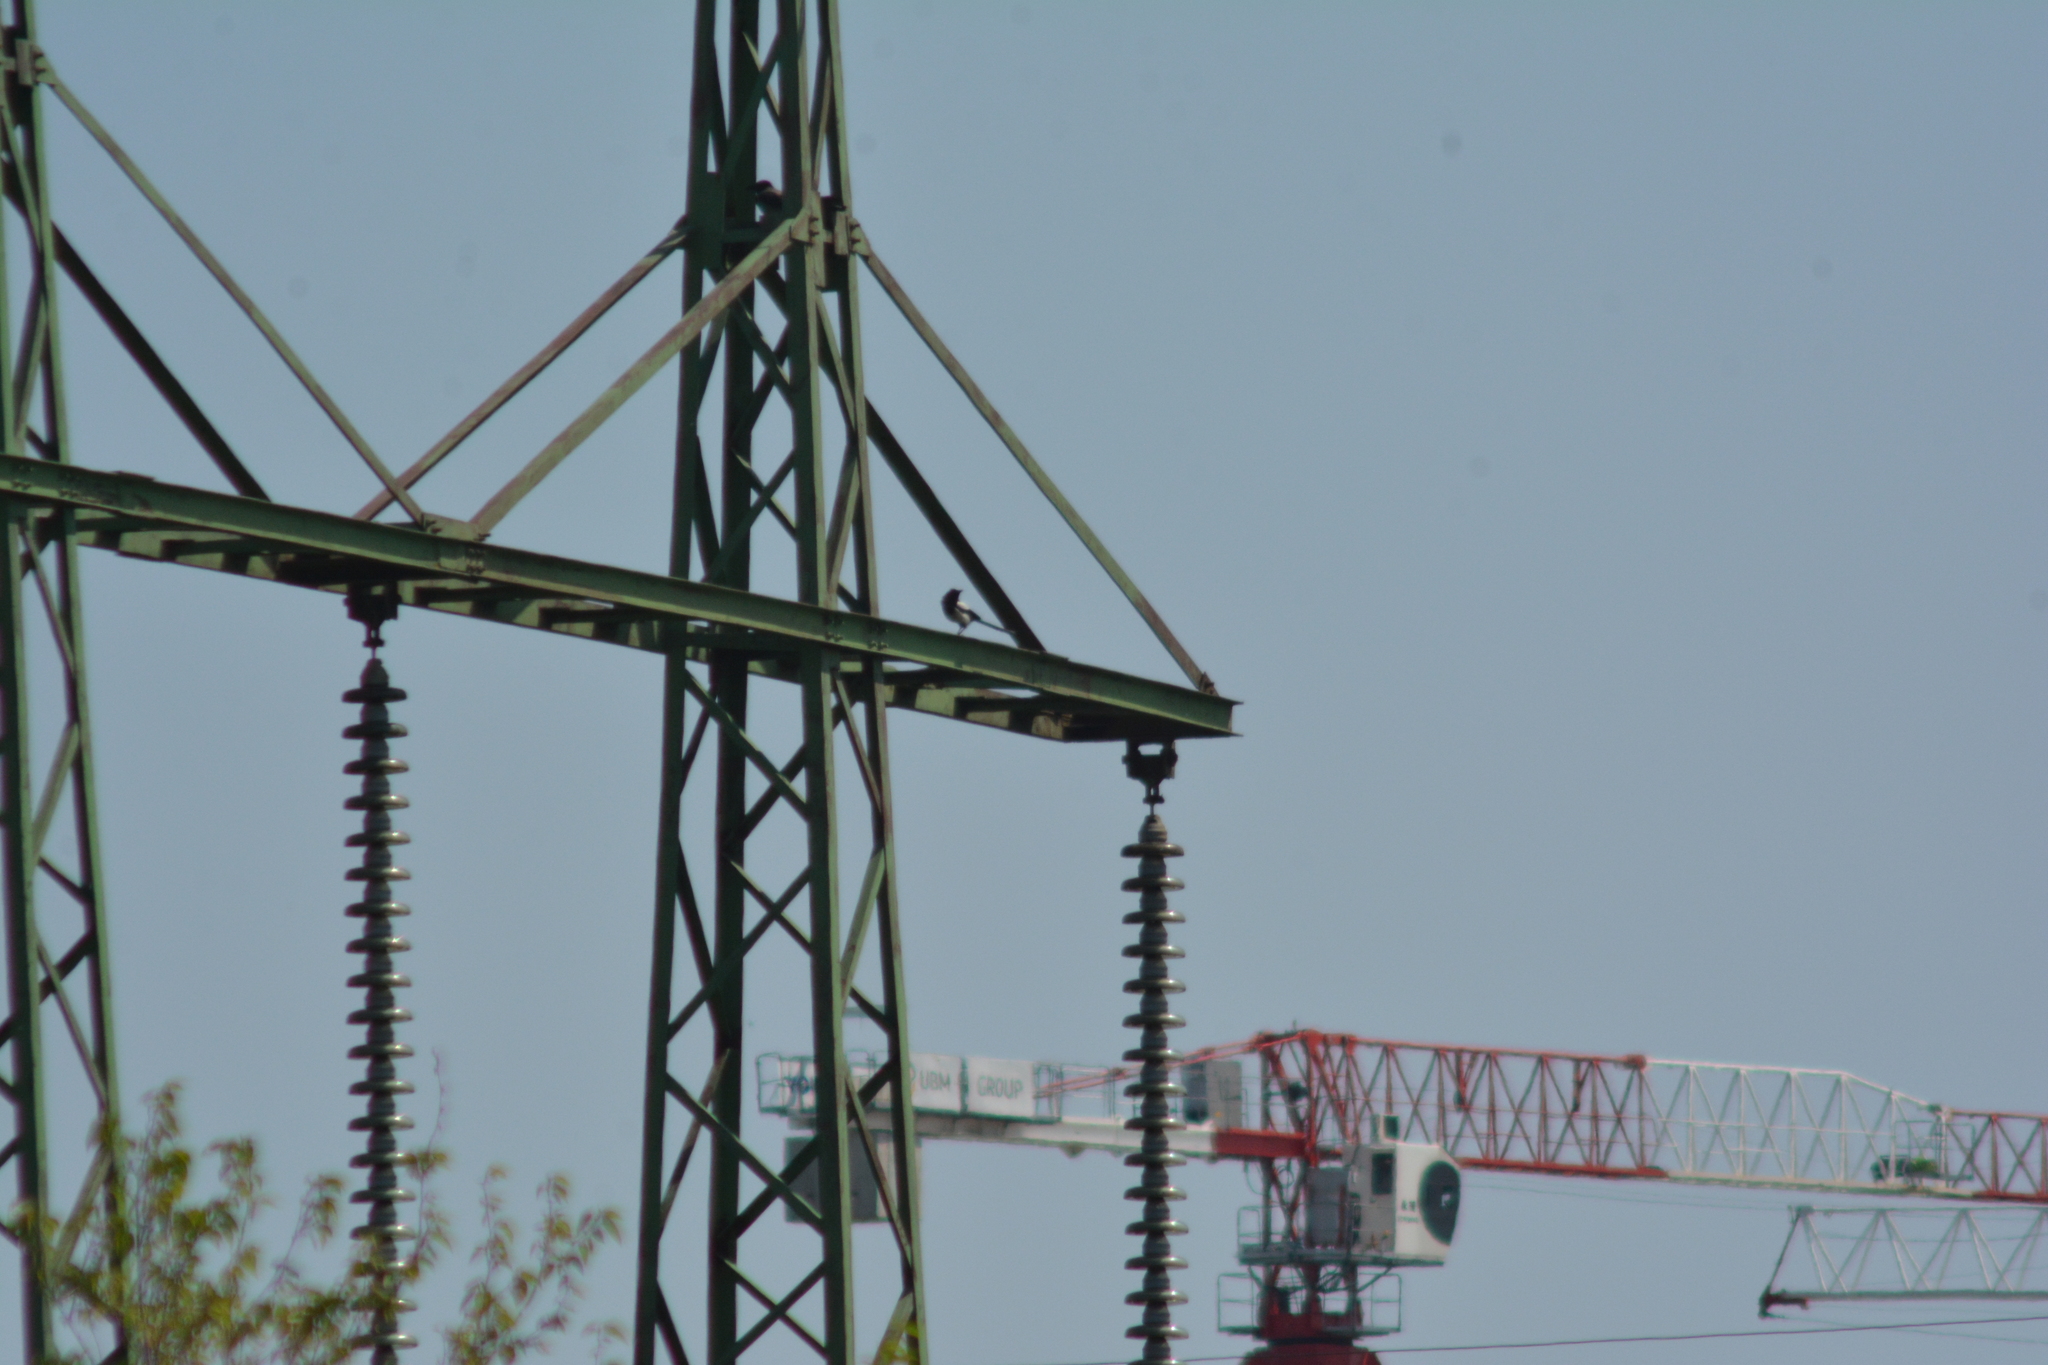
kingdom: Animalia
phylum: Chordata
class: Aves
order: Passeriformes
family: Corvidae
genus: Pica
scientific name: Pica pica
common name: Eurasian magpie
